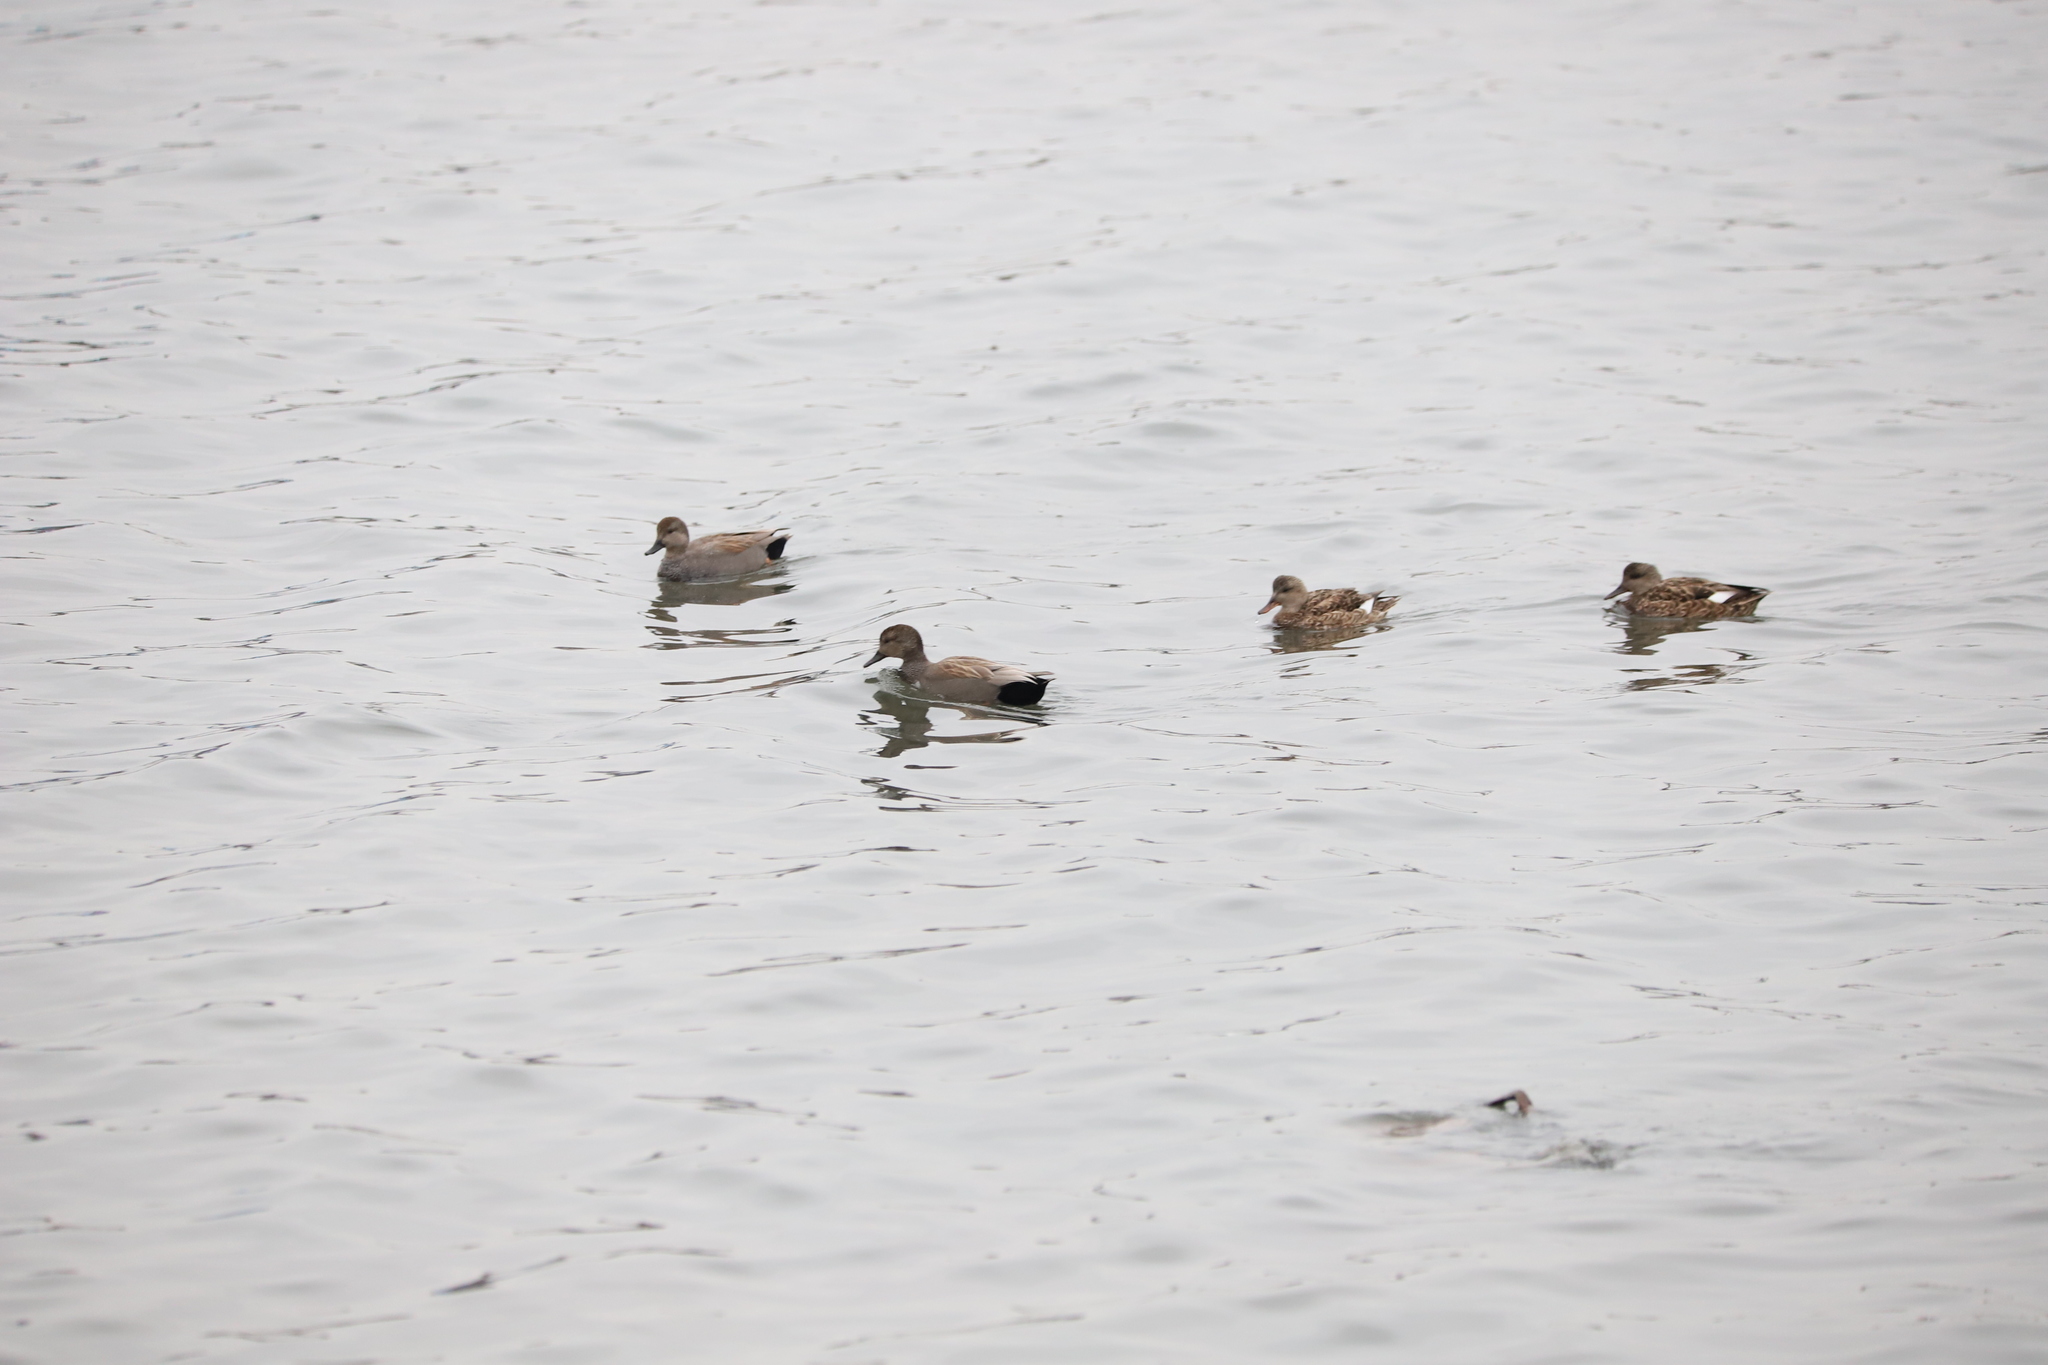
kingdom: Animalia
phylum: Chordata
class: Aves
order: Anseriformes
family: Anatidae
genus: Mareca
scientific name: Mareca strepera
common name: Gadwall
